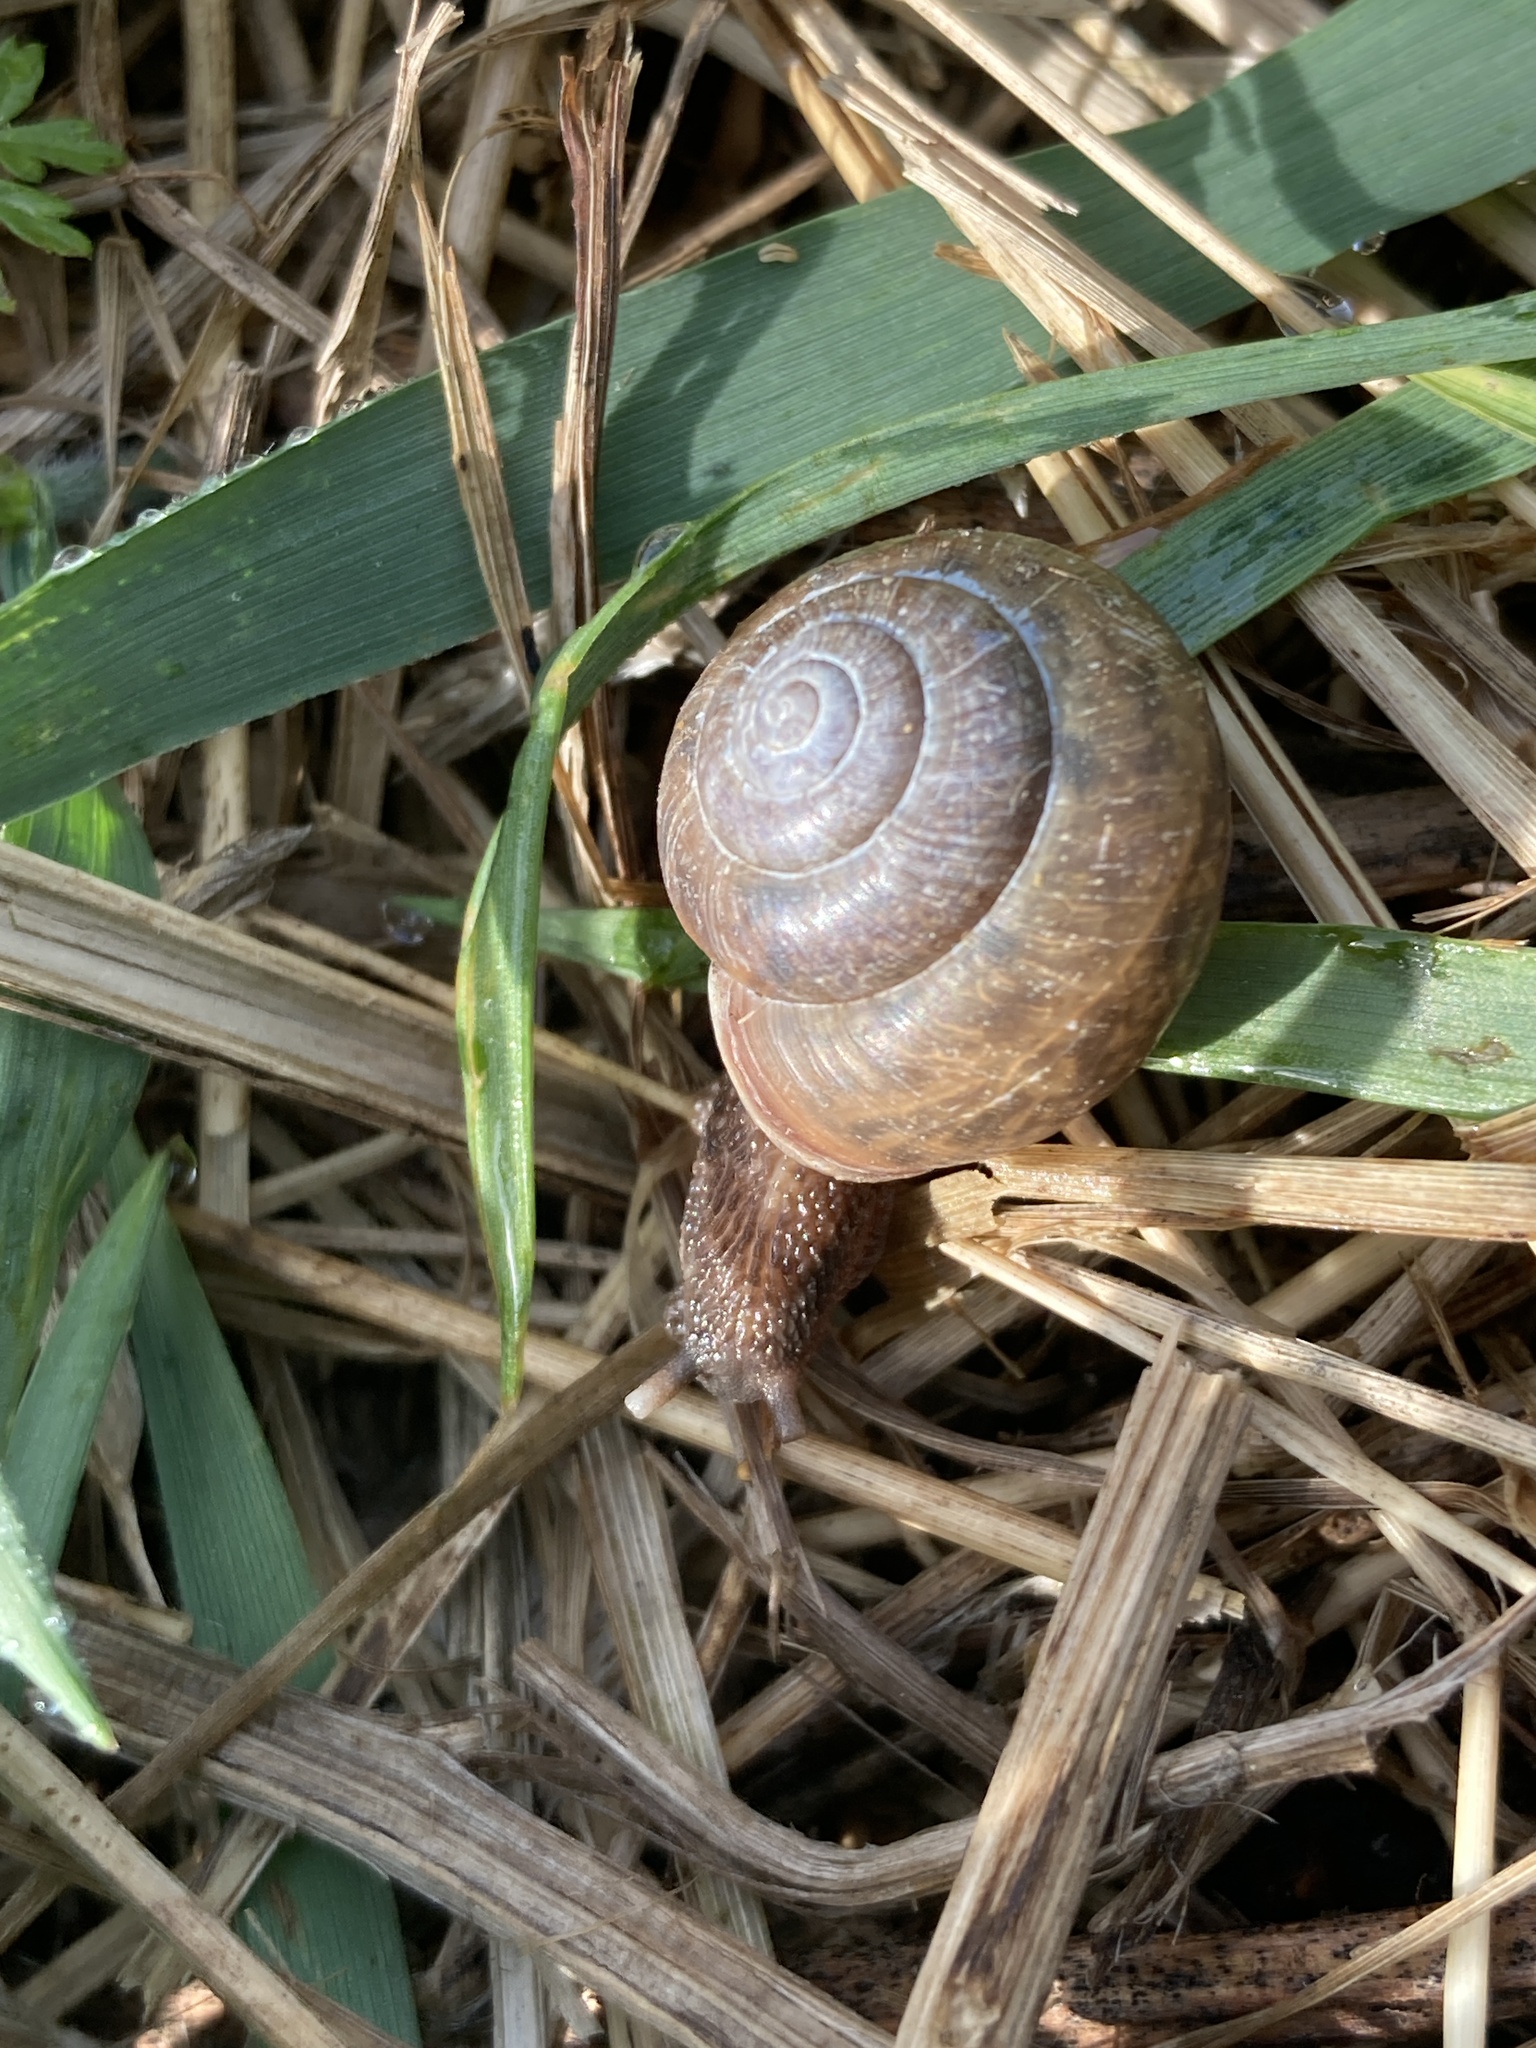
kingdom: Animalia
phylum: Mollusca
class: Gastropoda
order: Stylommatophora
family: Camaenidae
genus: Fruticicola
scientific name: Fruticicola fruticum
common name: Bush snail
